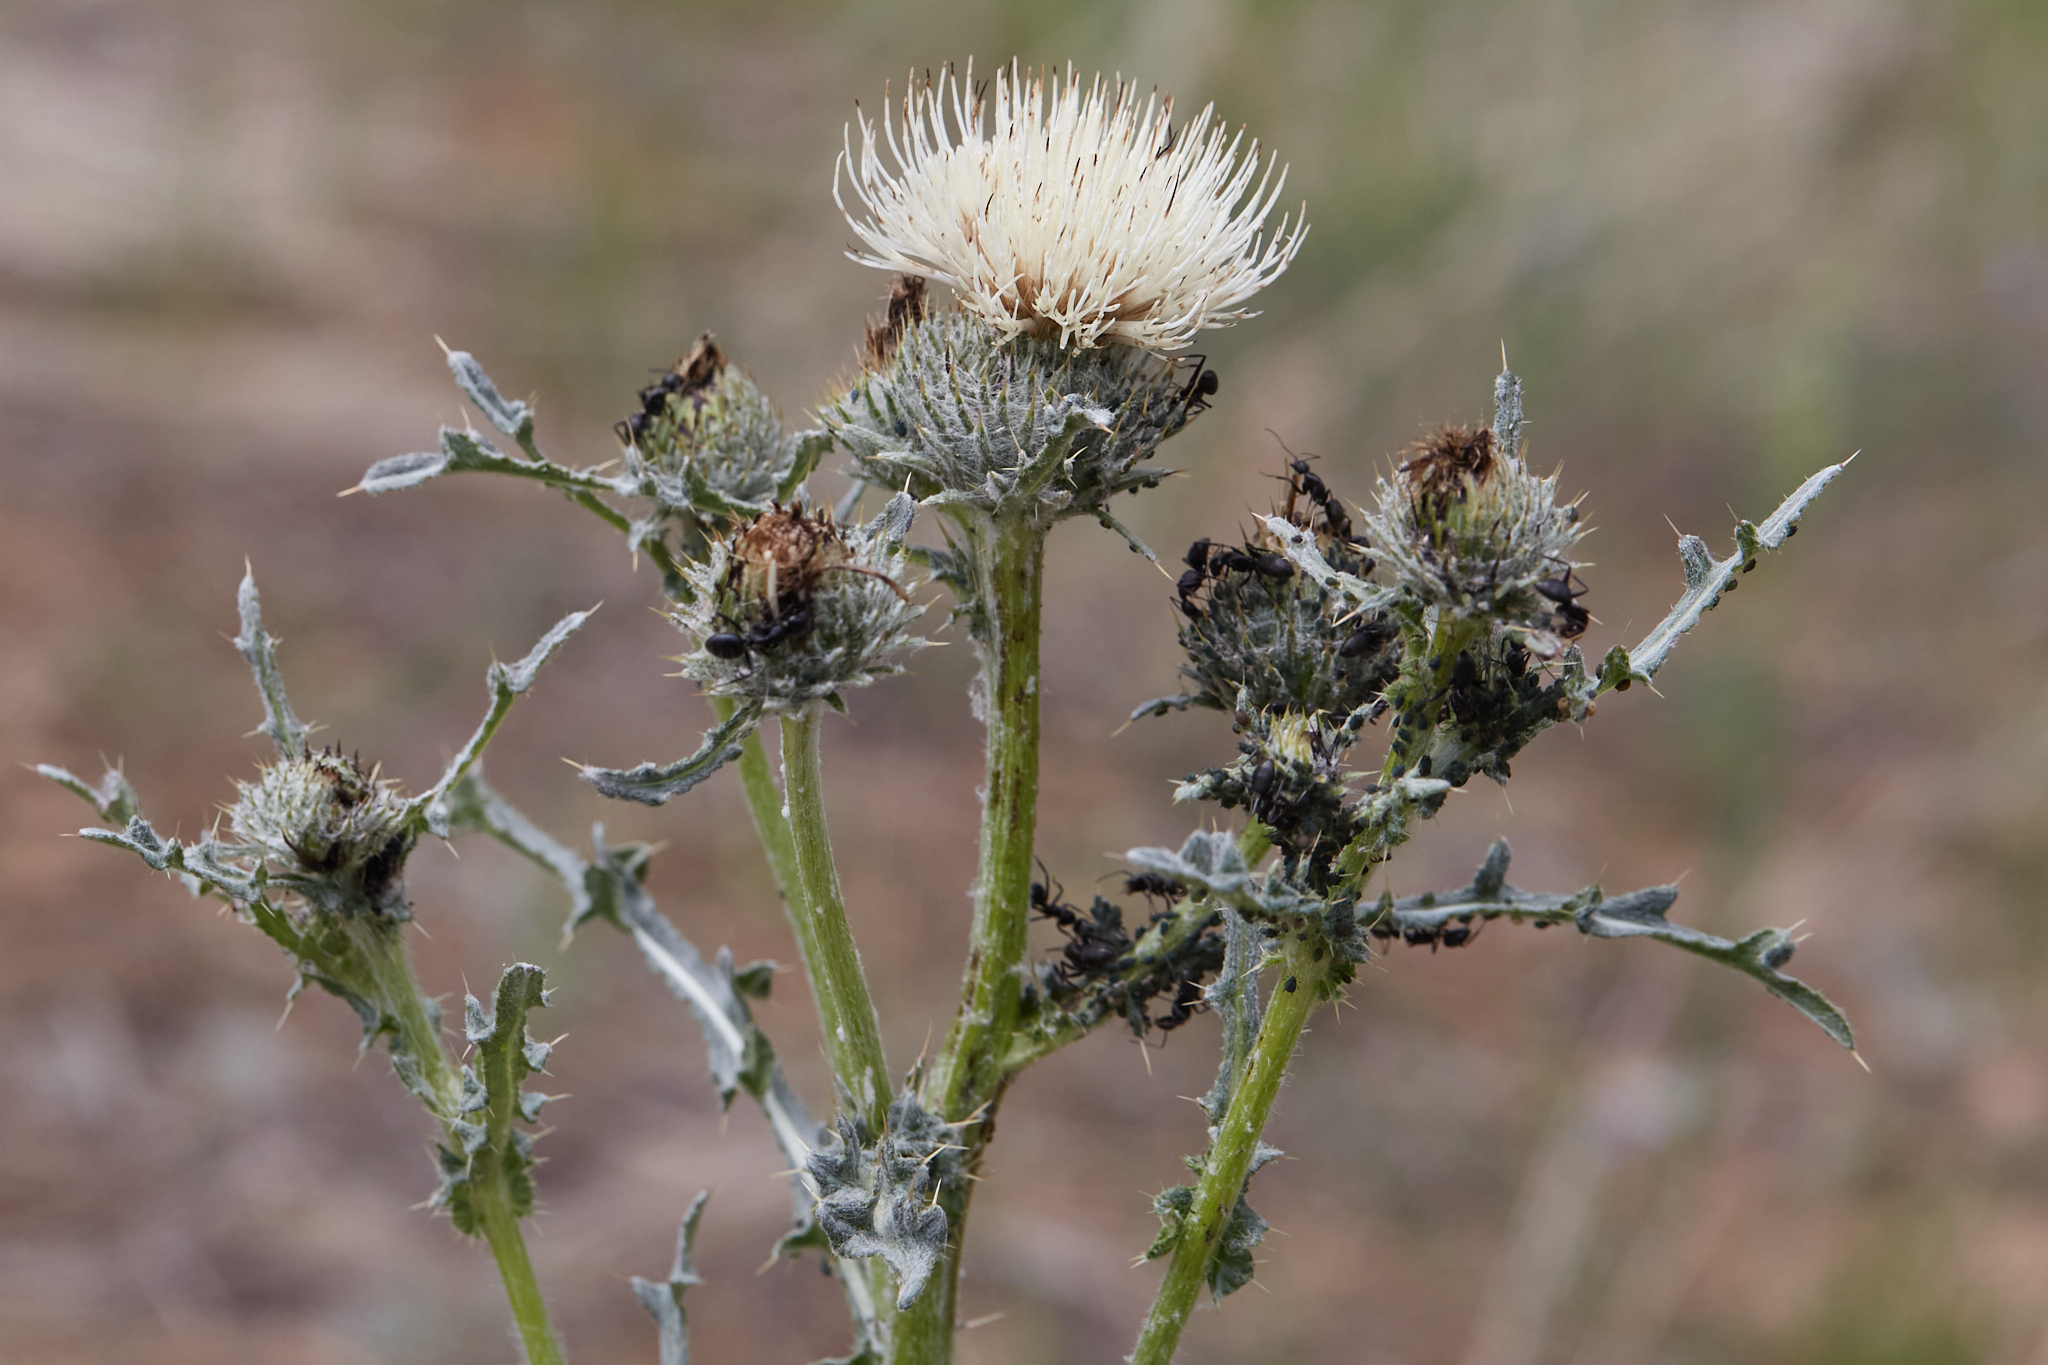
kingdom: Plantae
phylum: Tracheophyta
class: Magnoliopsida
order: Asterales
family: Asteraceae
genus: Cirsium
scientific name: Cirsium cymosum
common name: Peregrine thistle
